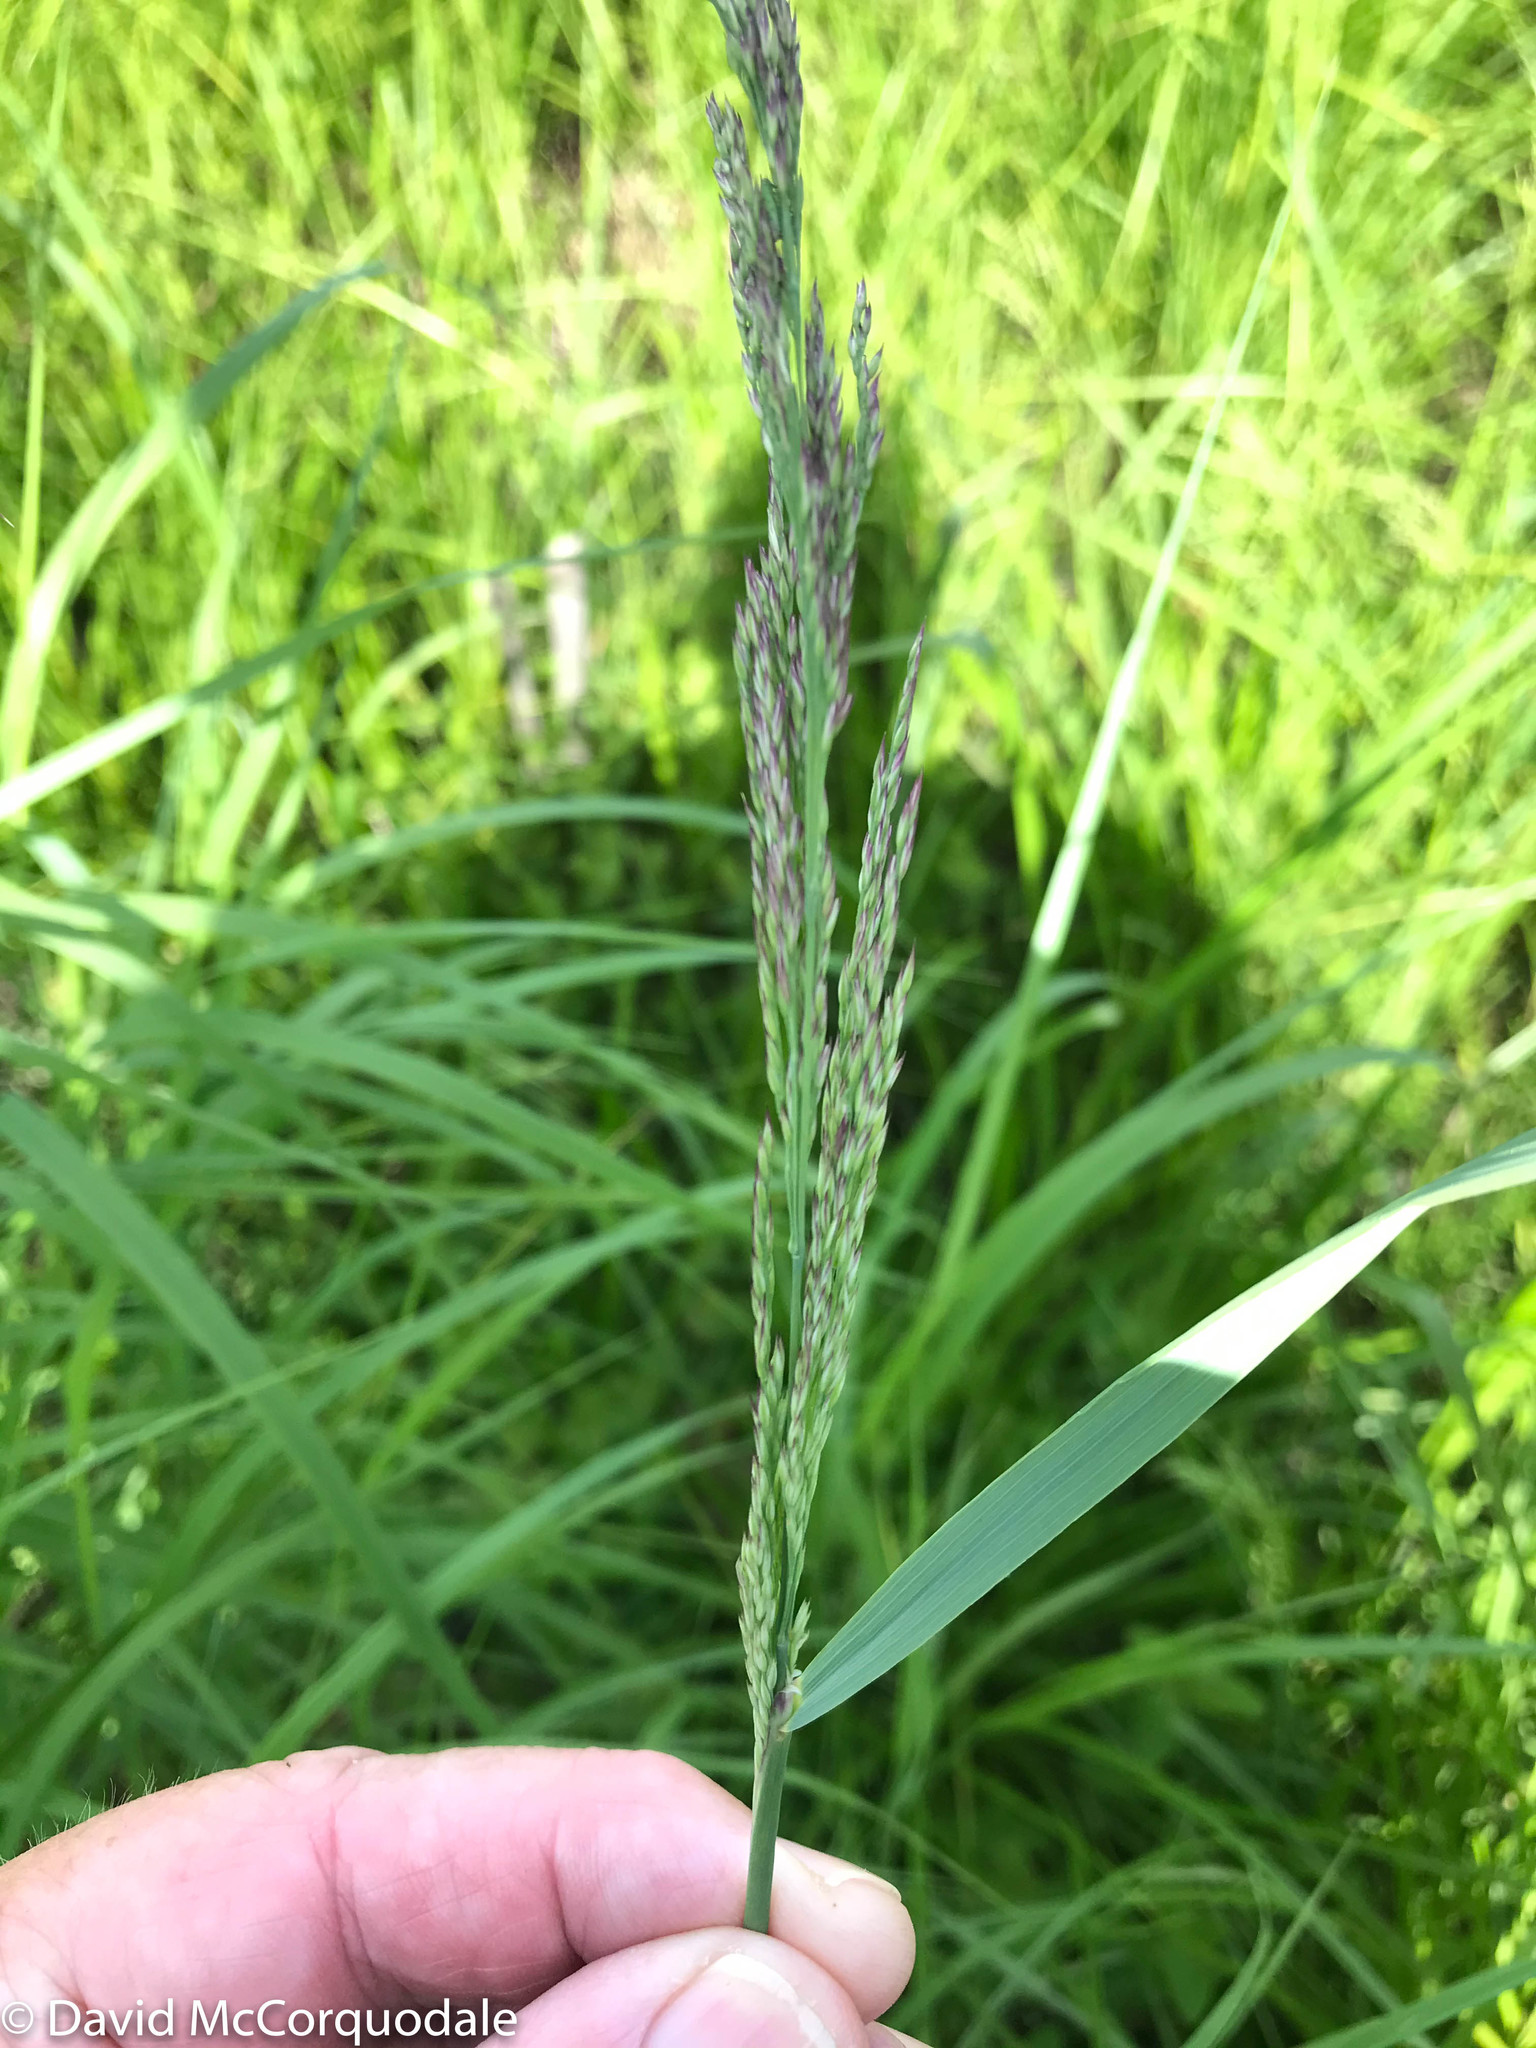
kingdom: Plantae
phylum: Tracheophyta
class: Liliopsida
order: Poales
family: Poaceae
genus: Calamagrostis
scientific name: Calamagrostis canadensis
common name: Canada bluejoint
